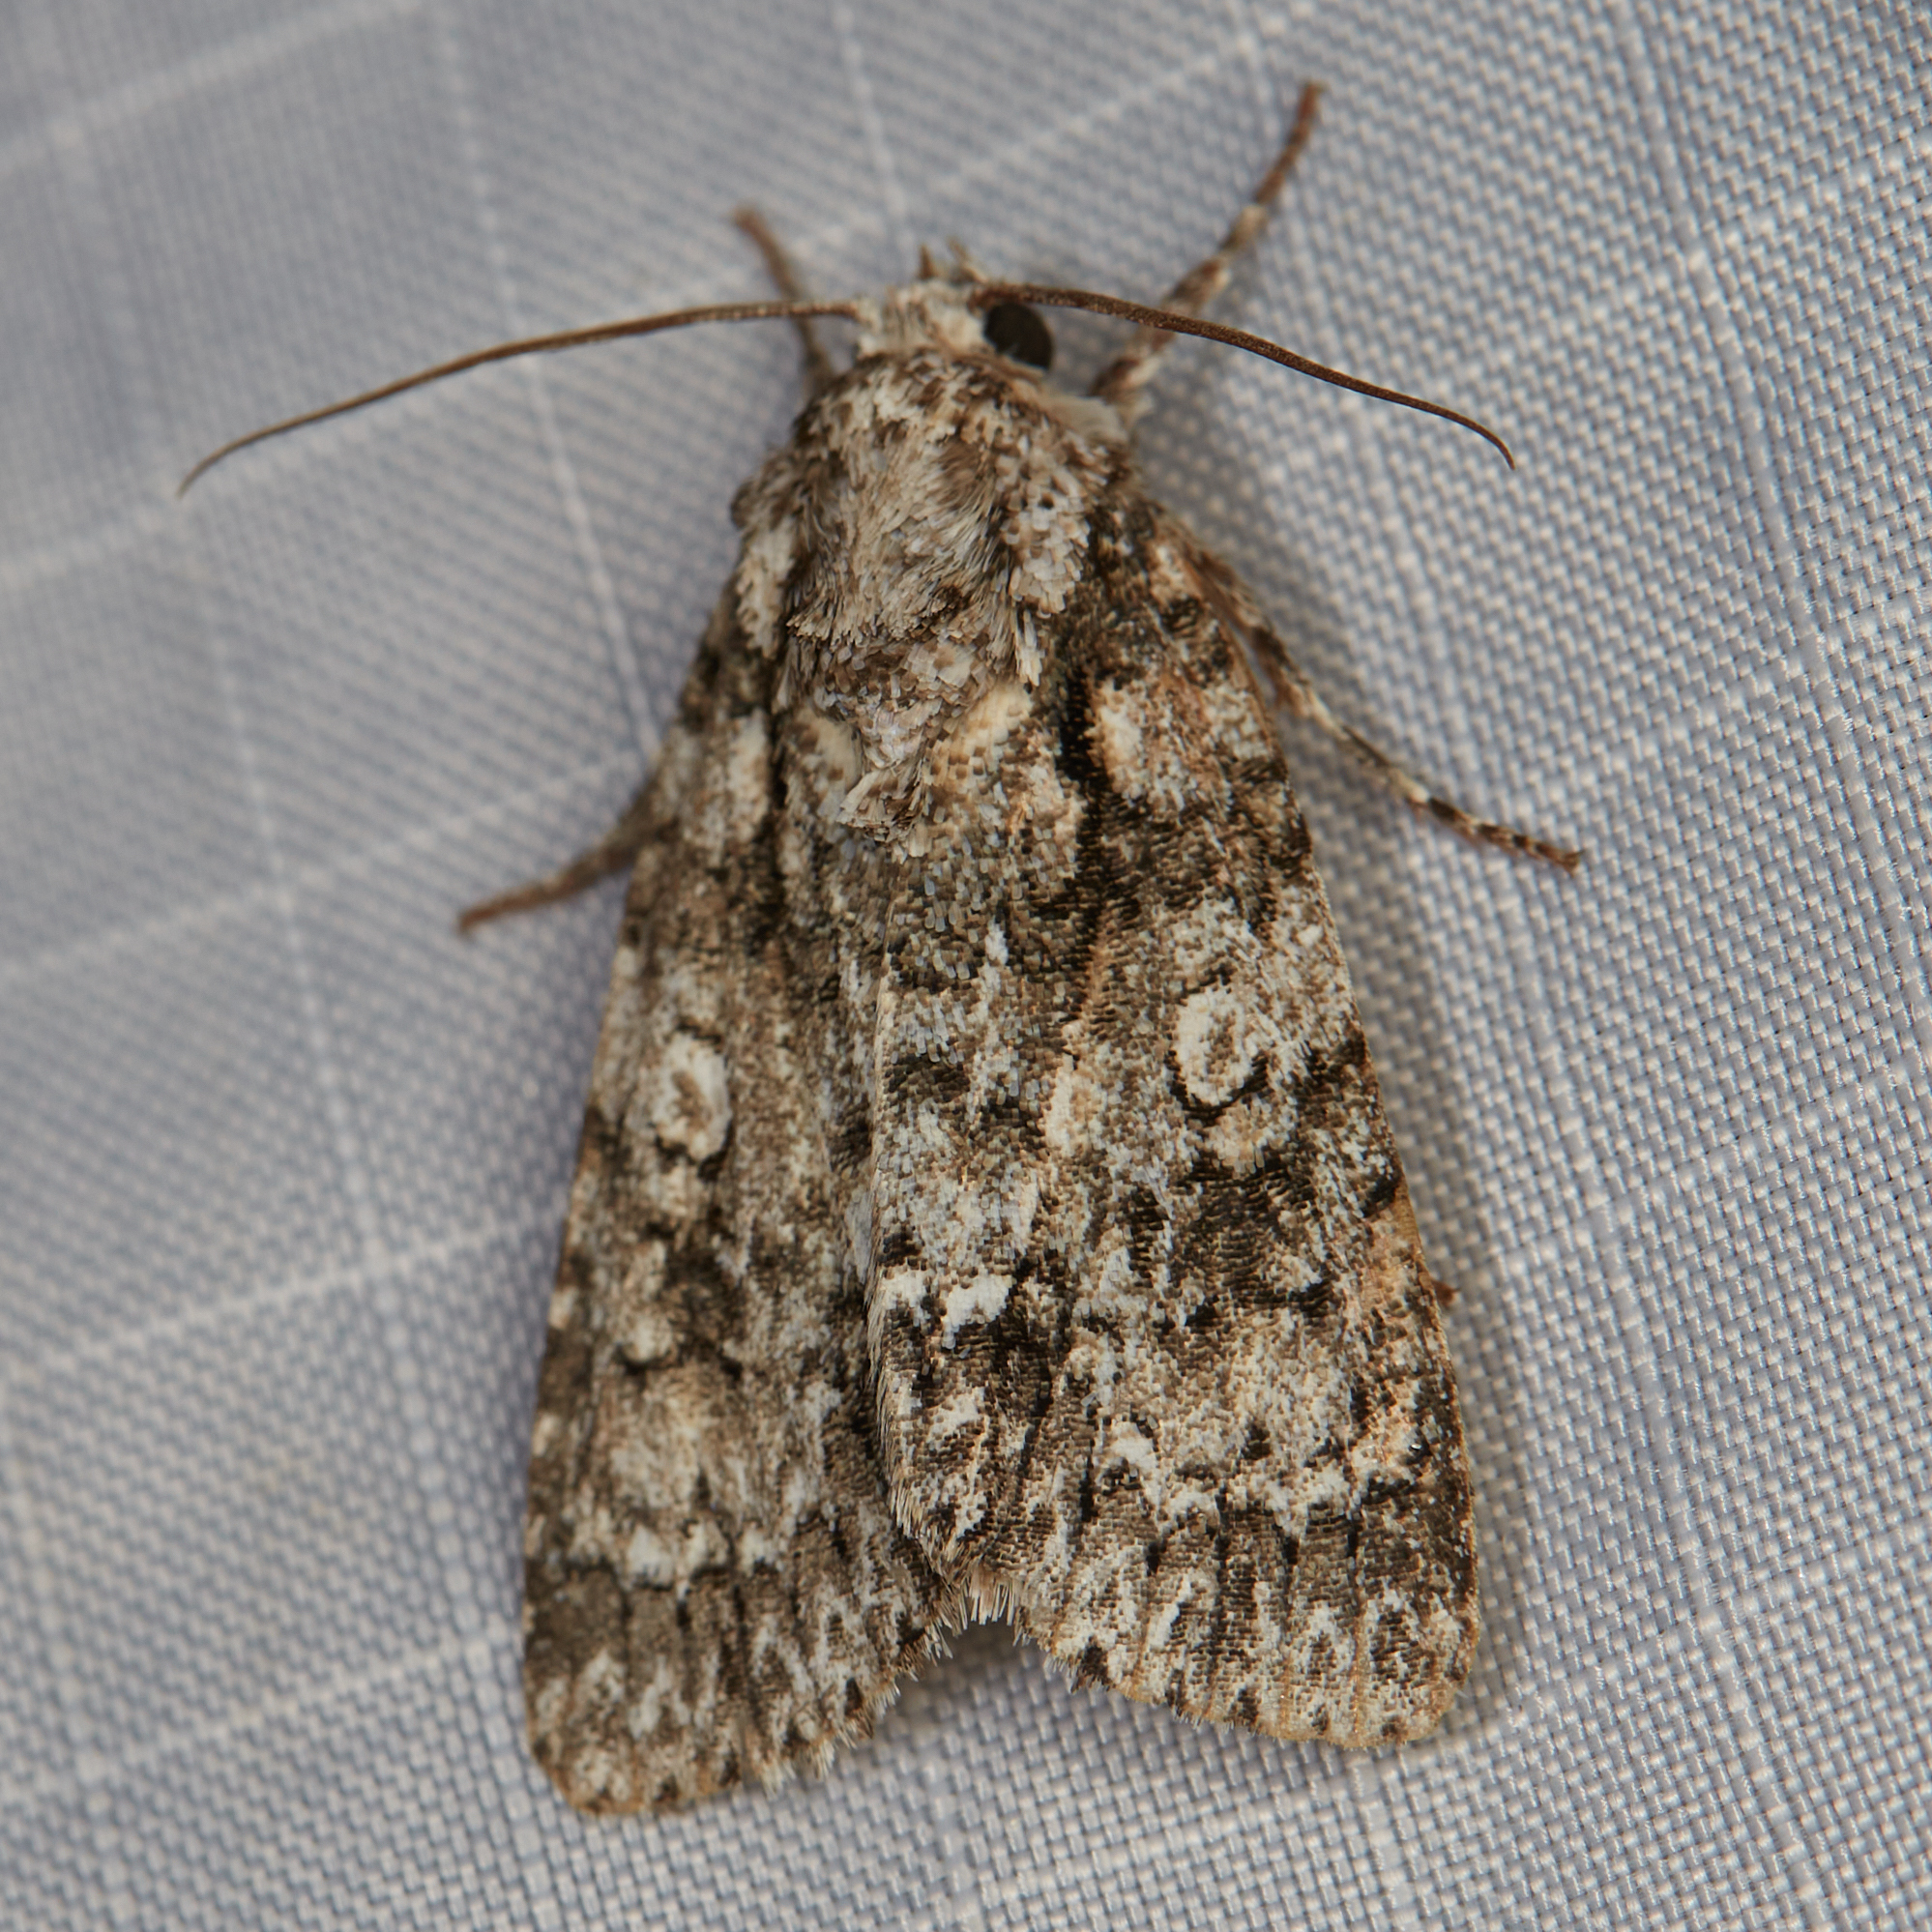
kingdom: Animalia
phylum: Arthropoda
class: Insecta
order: Lepidoptera
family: Noctuidae
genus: Acronicta
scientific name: Acronicta marmorata
